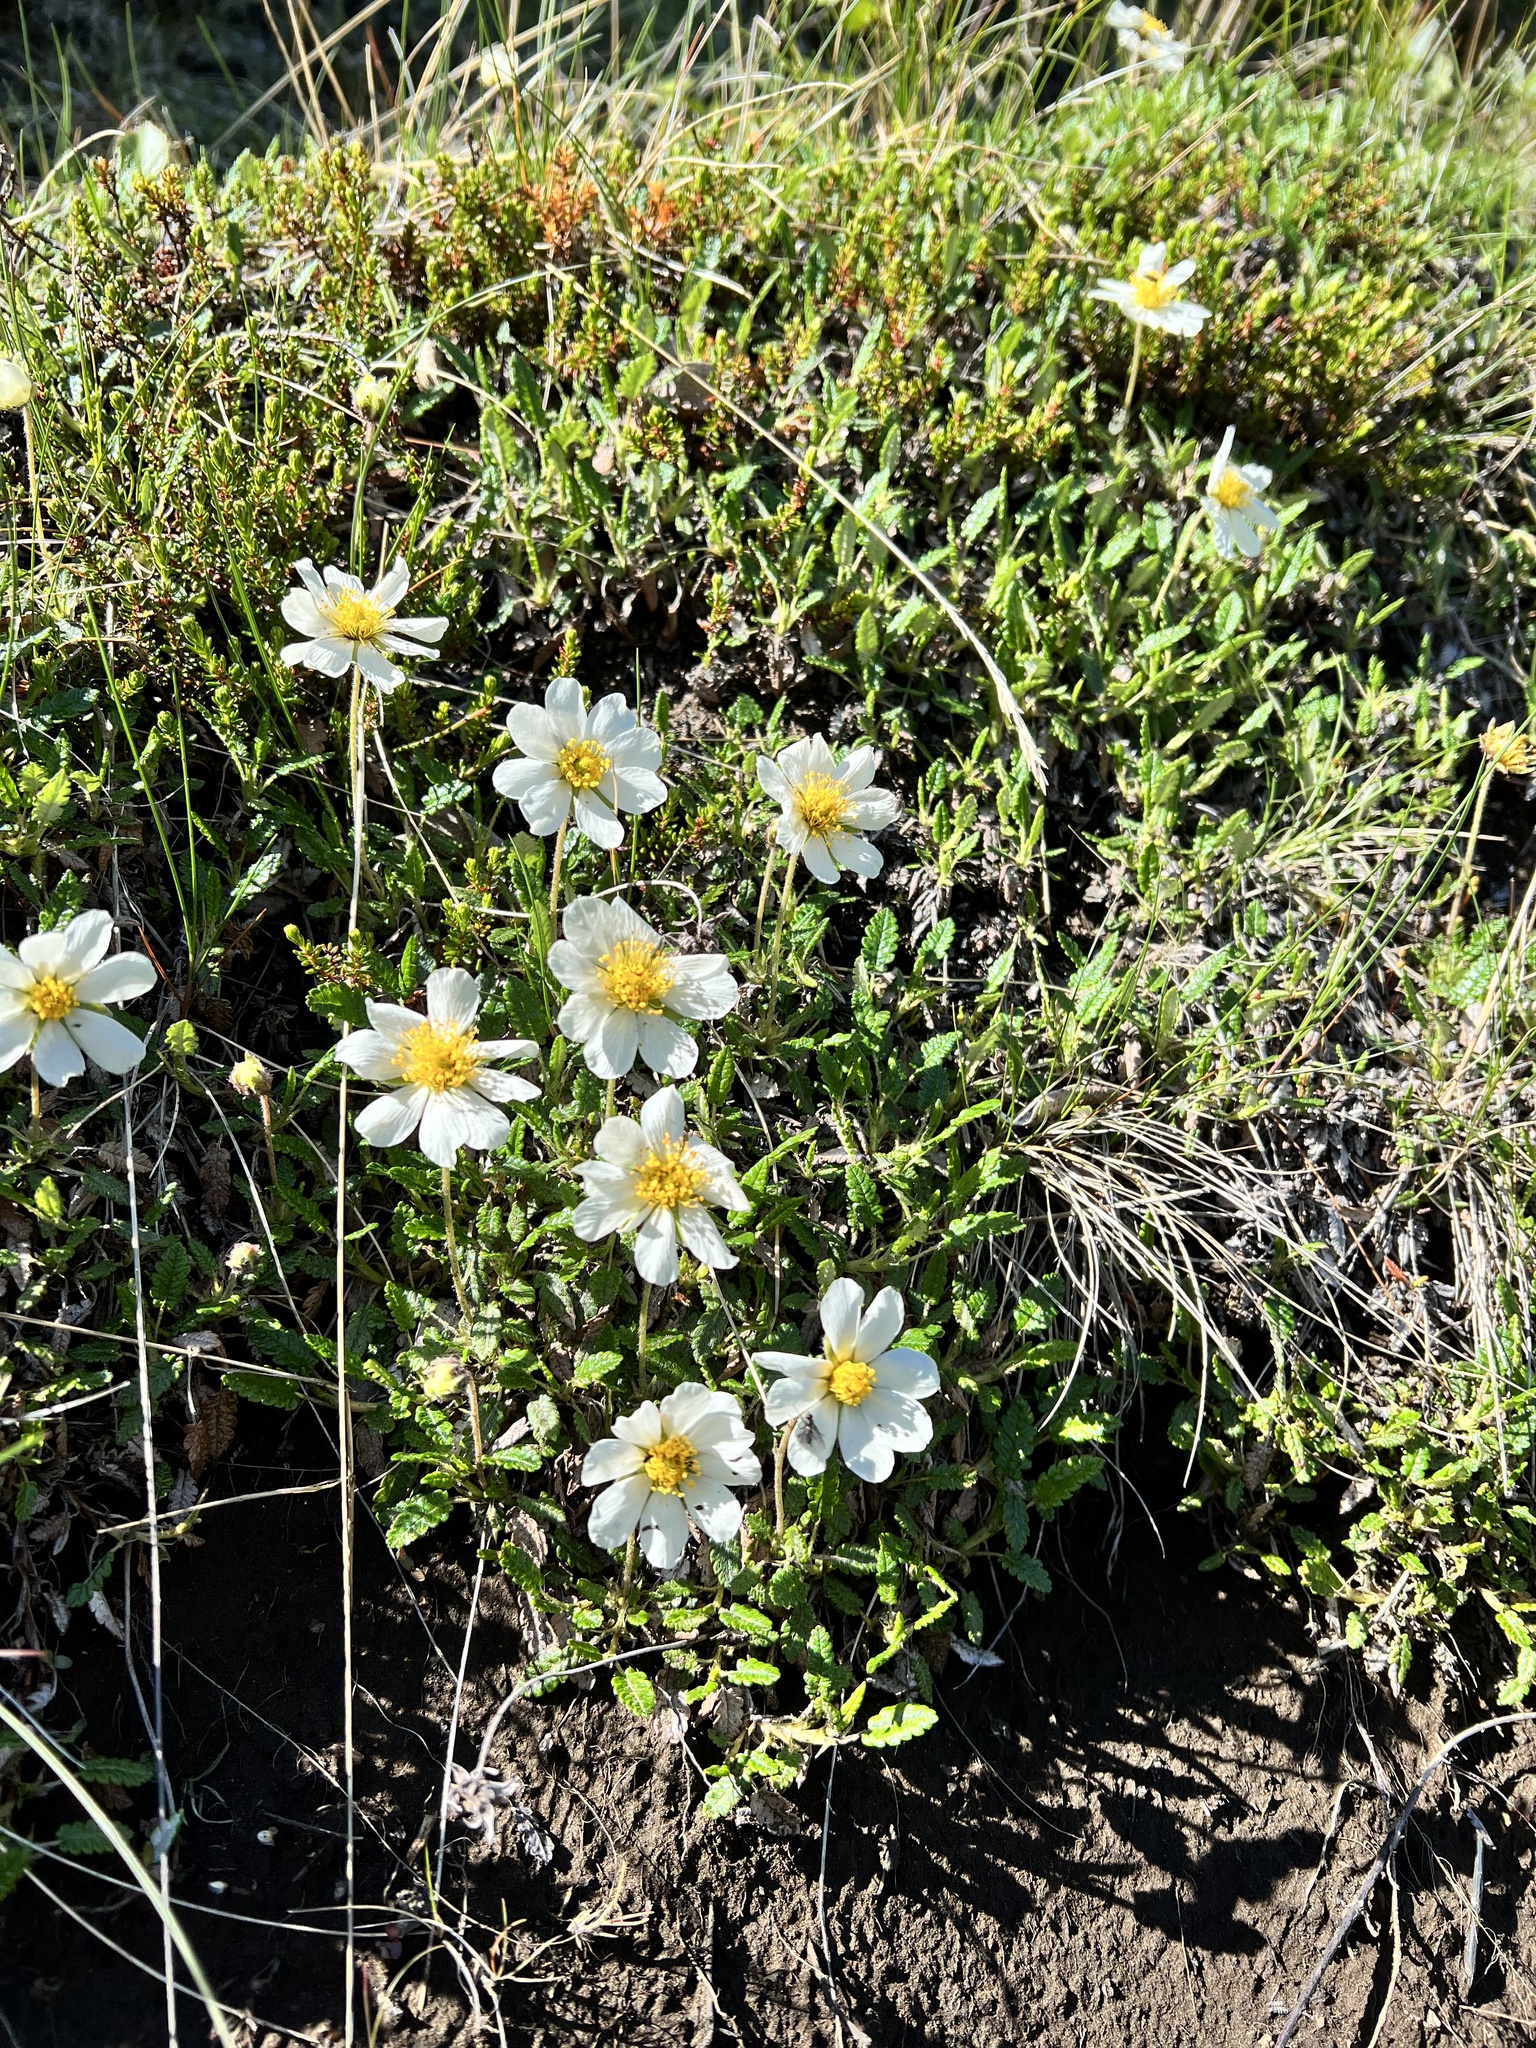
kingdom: Plantae
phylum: Tracheophyta
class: Magnoliopsida
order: Rosales
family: Rosaceae
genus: Dryas
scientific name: Dryas octopetala
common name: Eight-petal mountain-avens
